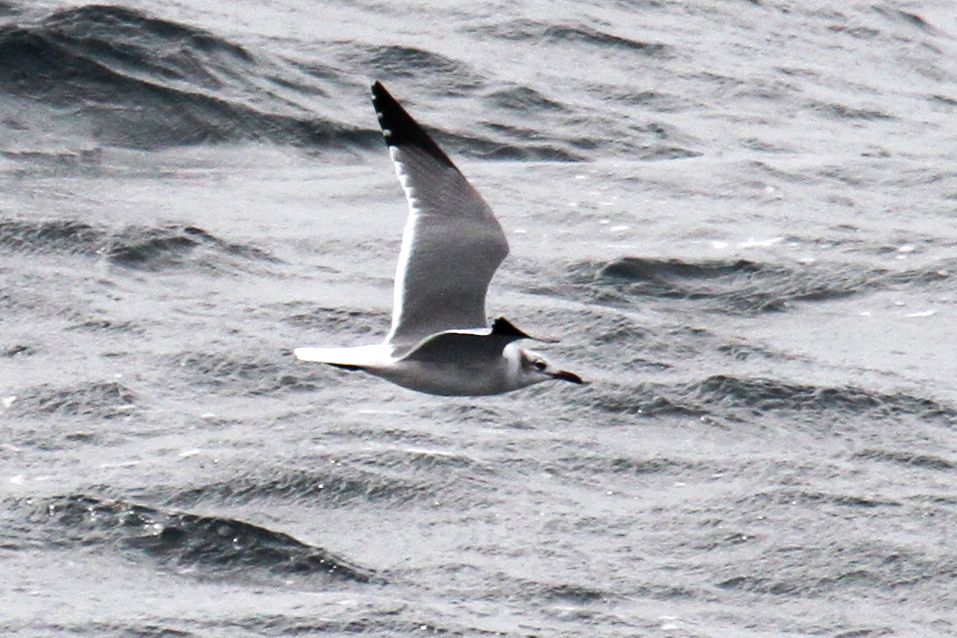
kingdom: Animalia
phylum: Chordata
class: Aves
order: Charadriiformes
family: Laridae
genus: Leucophaeus
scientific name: Leucophaeus atricilla
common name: Laughing gull
